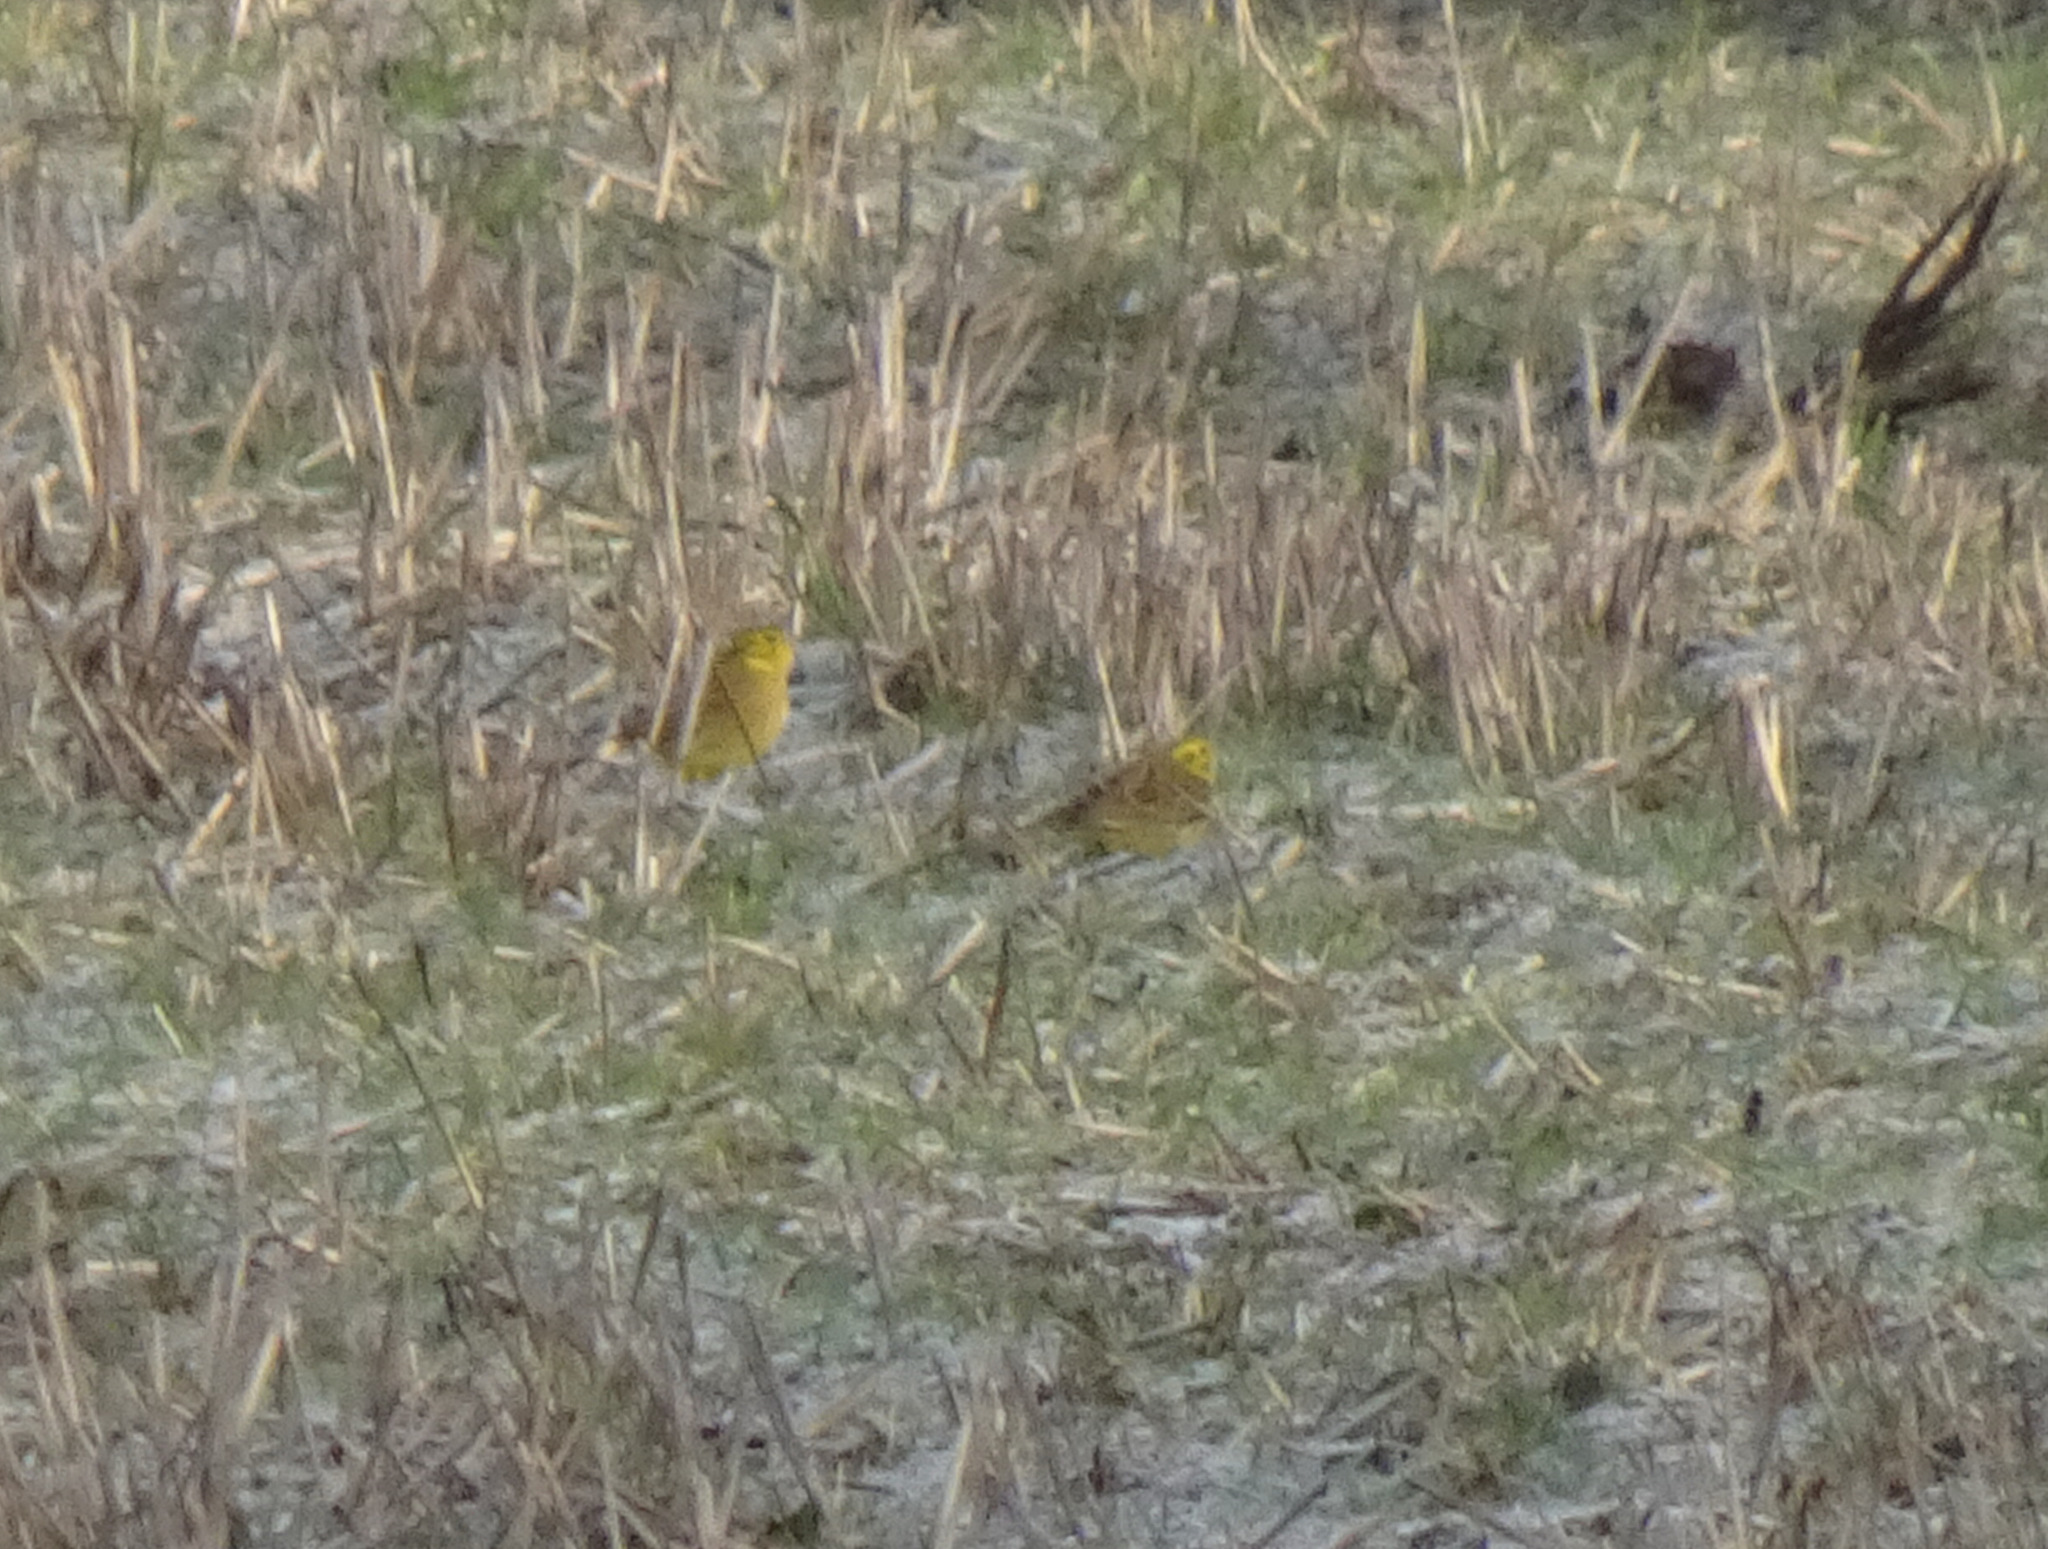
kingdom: Animalia
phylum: Chordata
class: Aves
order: Passeriformes
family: Emberizidae
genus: Emberiza
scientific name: Emberiza citrinella
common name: Yellowhammer
